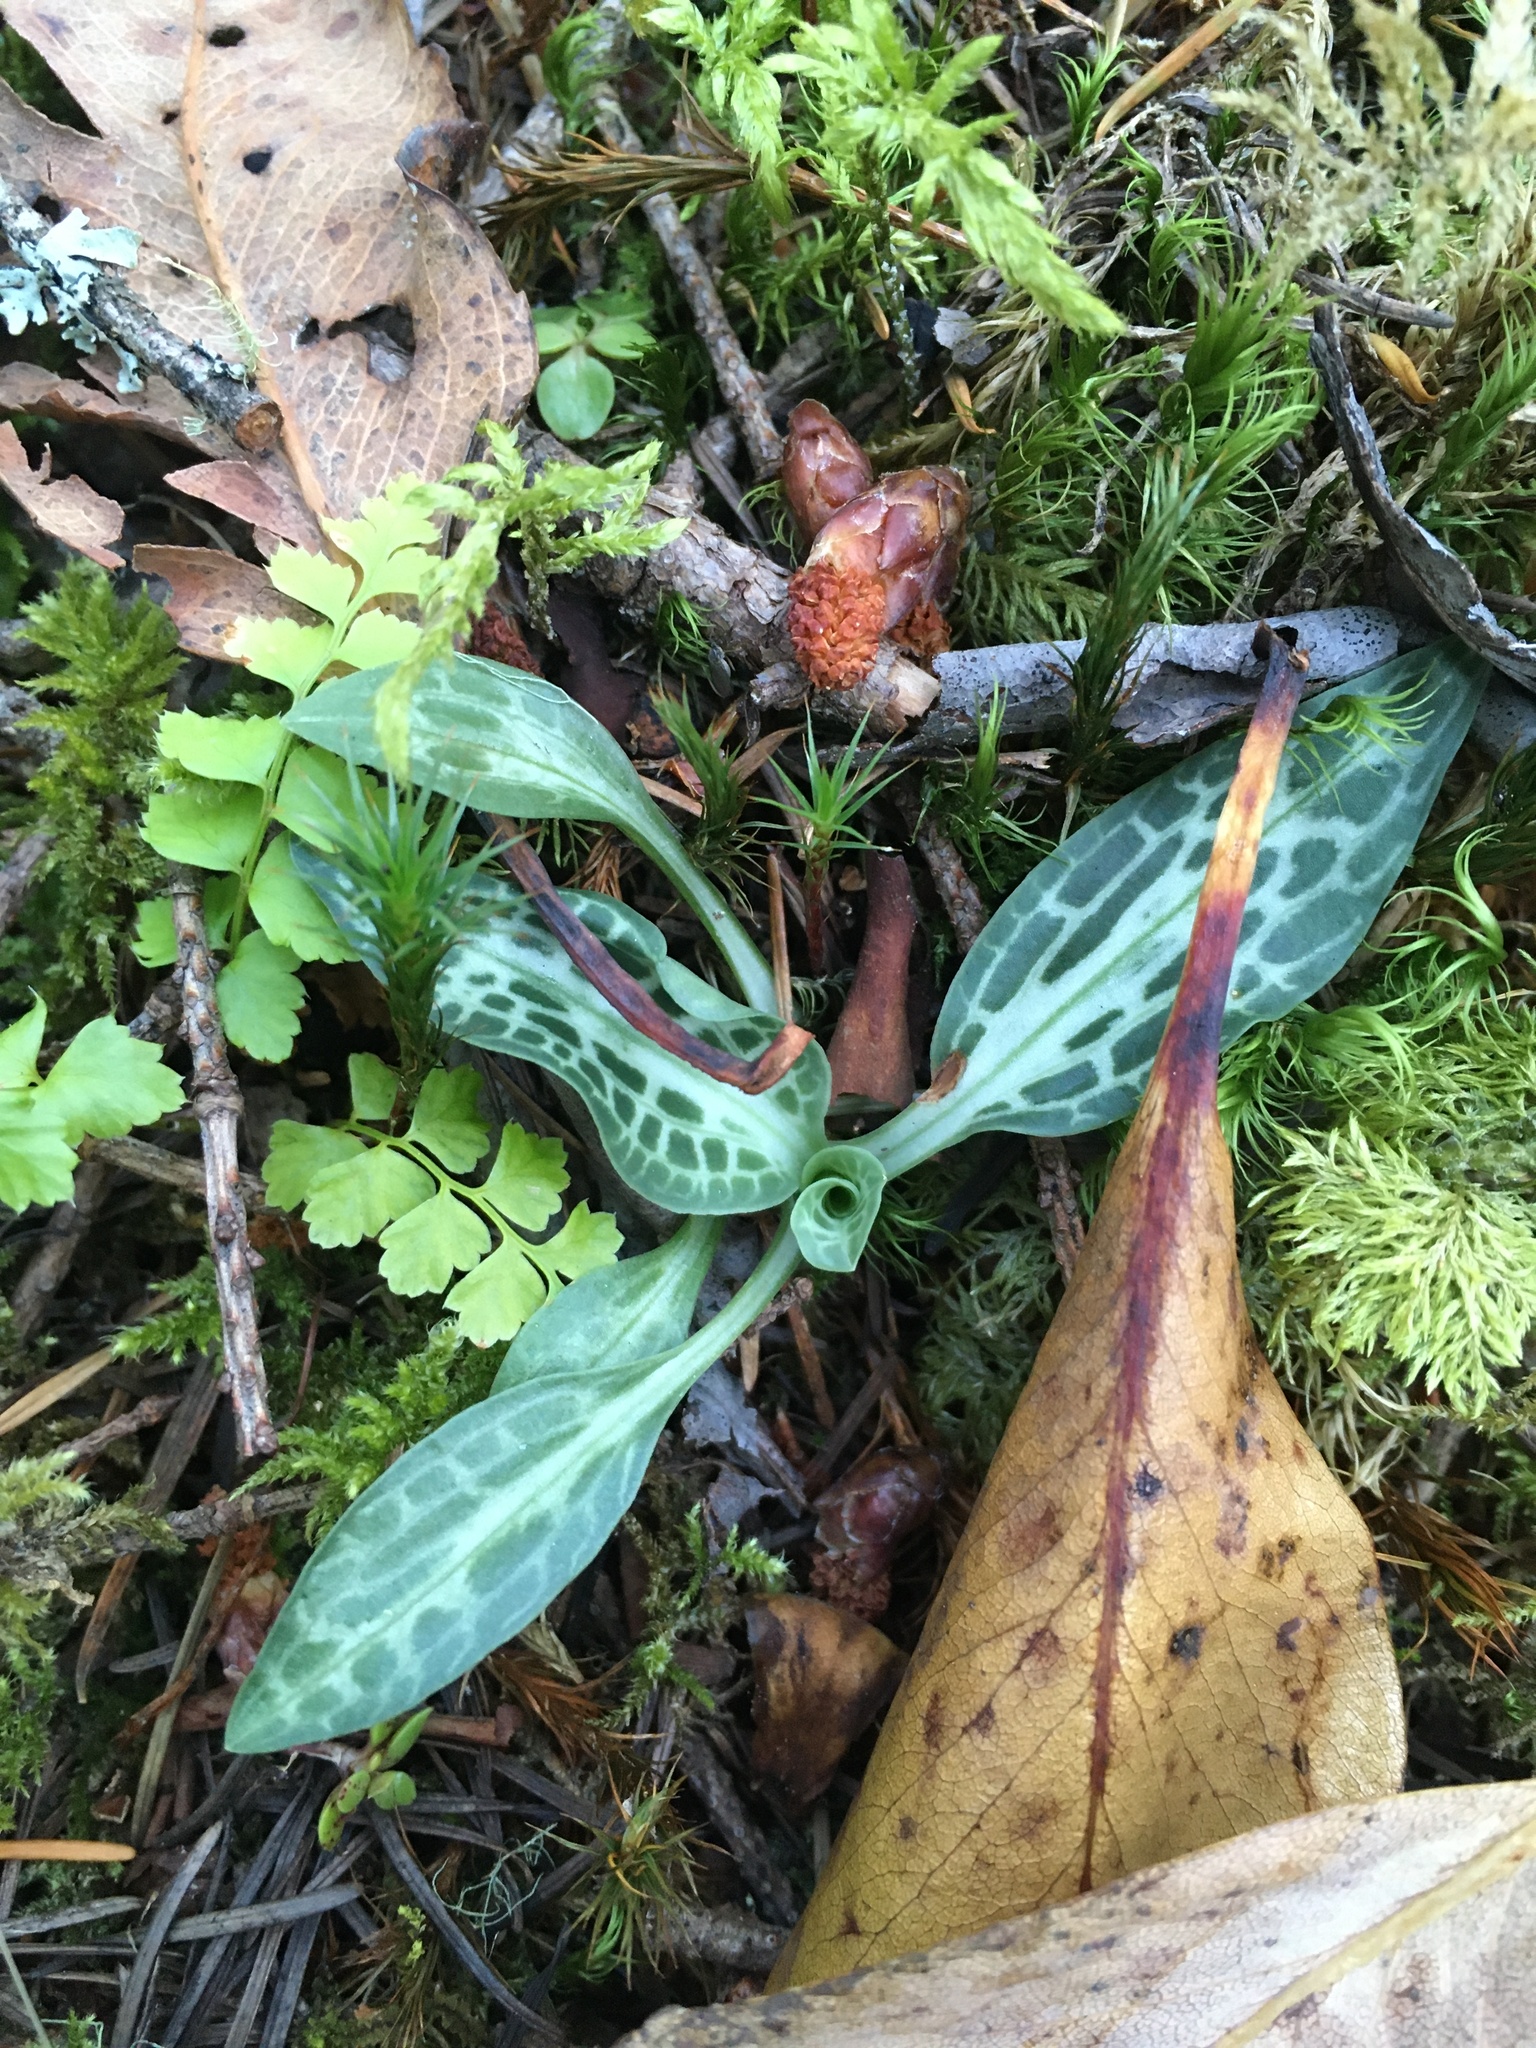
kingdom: Plantae
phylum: Tracheophyta
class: Liliopsida
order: Asparagales
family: Orchidaceae
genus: Goodyera
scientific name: Goodyera oblongifolia
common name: Giant rattlesnake-plantain
